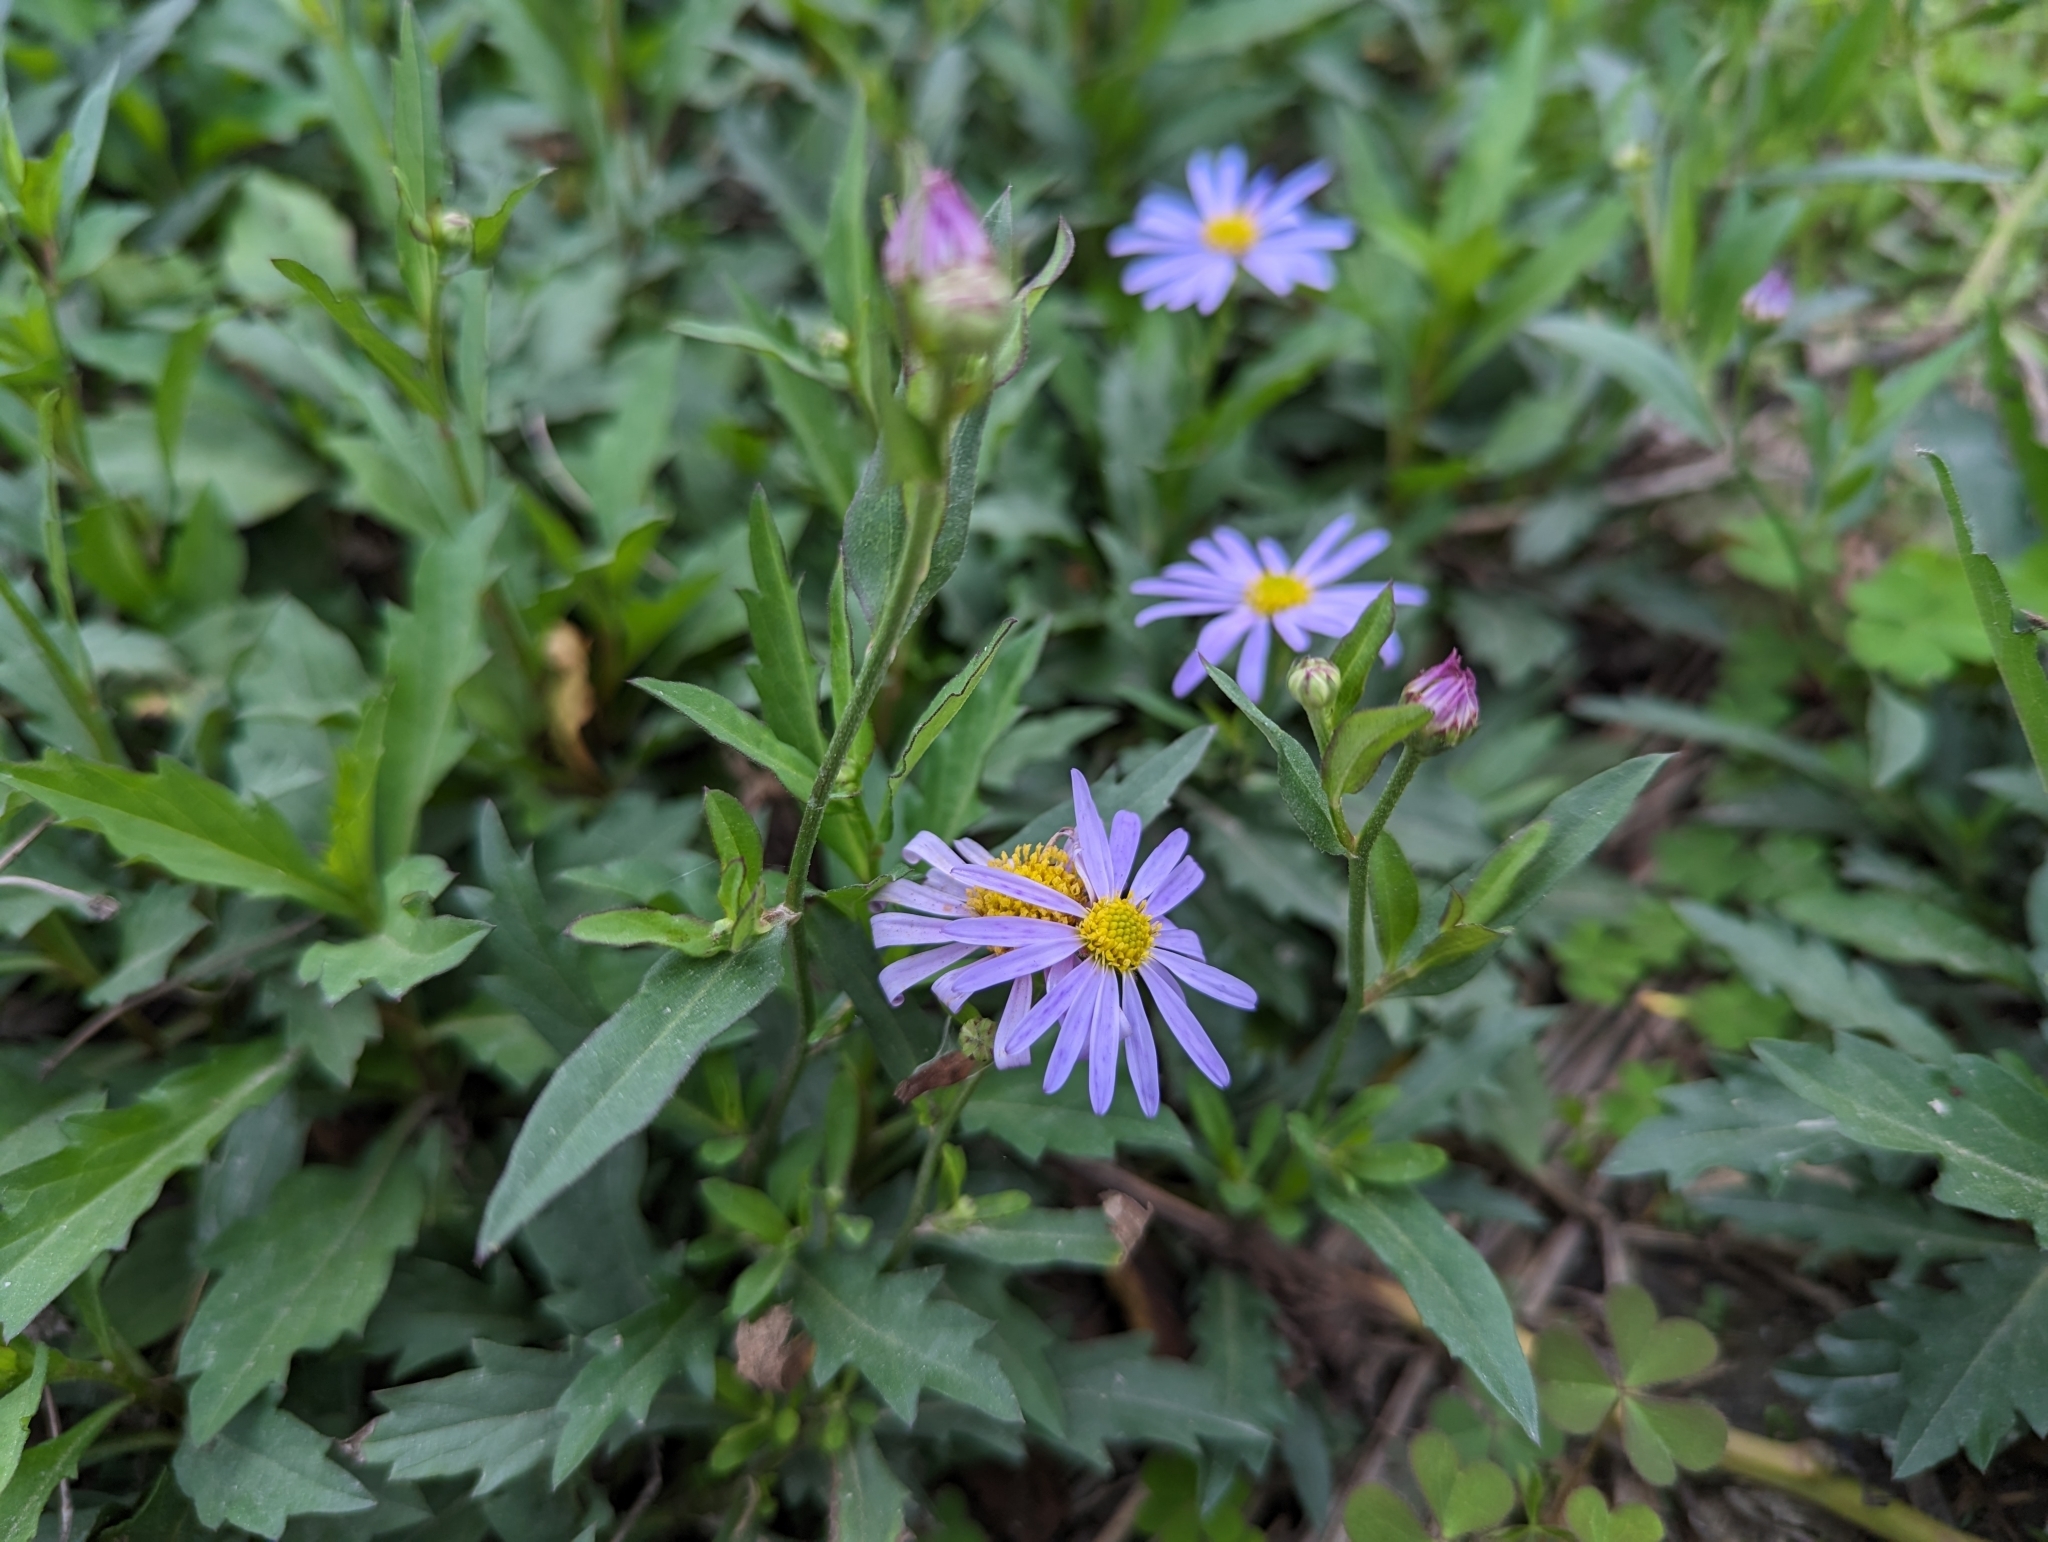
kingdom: Plantae
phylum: Tracheophyta
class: Magnoliopsida
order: Asterales
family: Asteraceae
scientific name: Asteraceae
